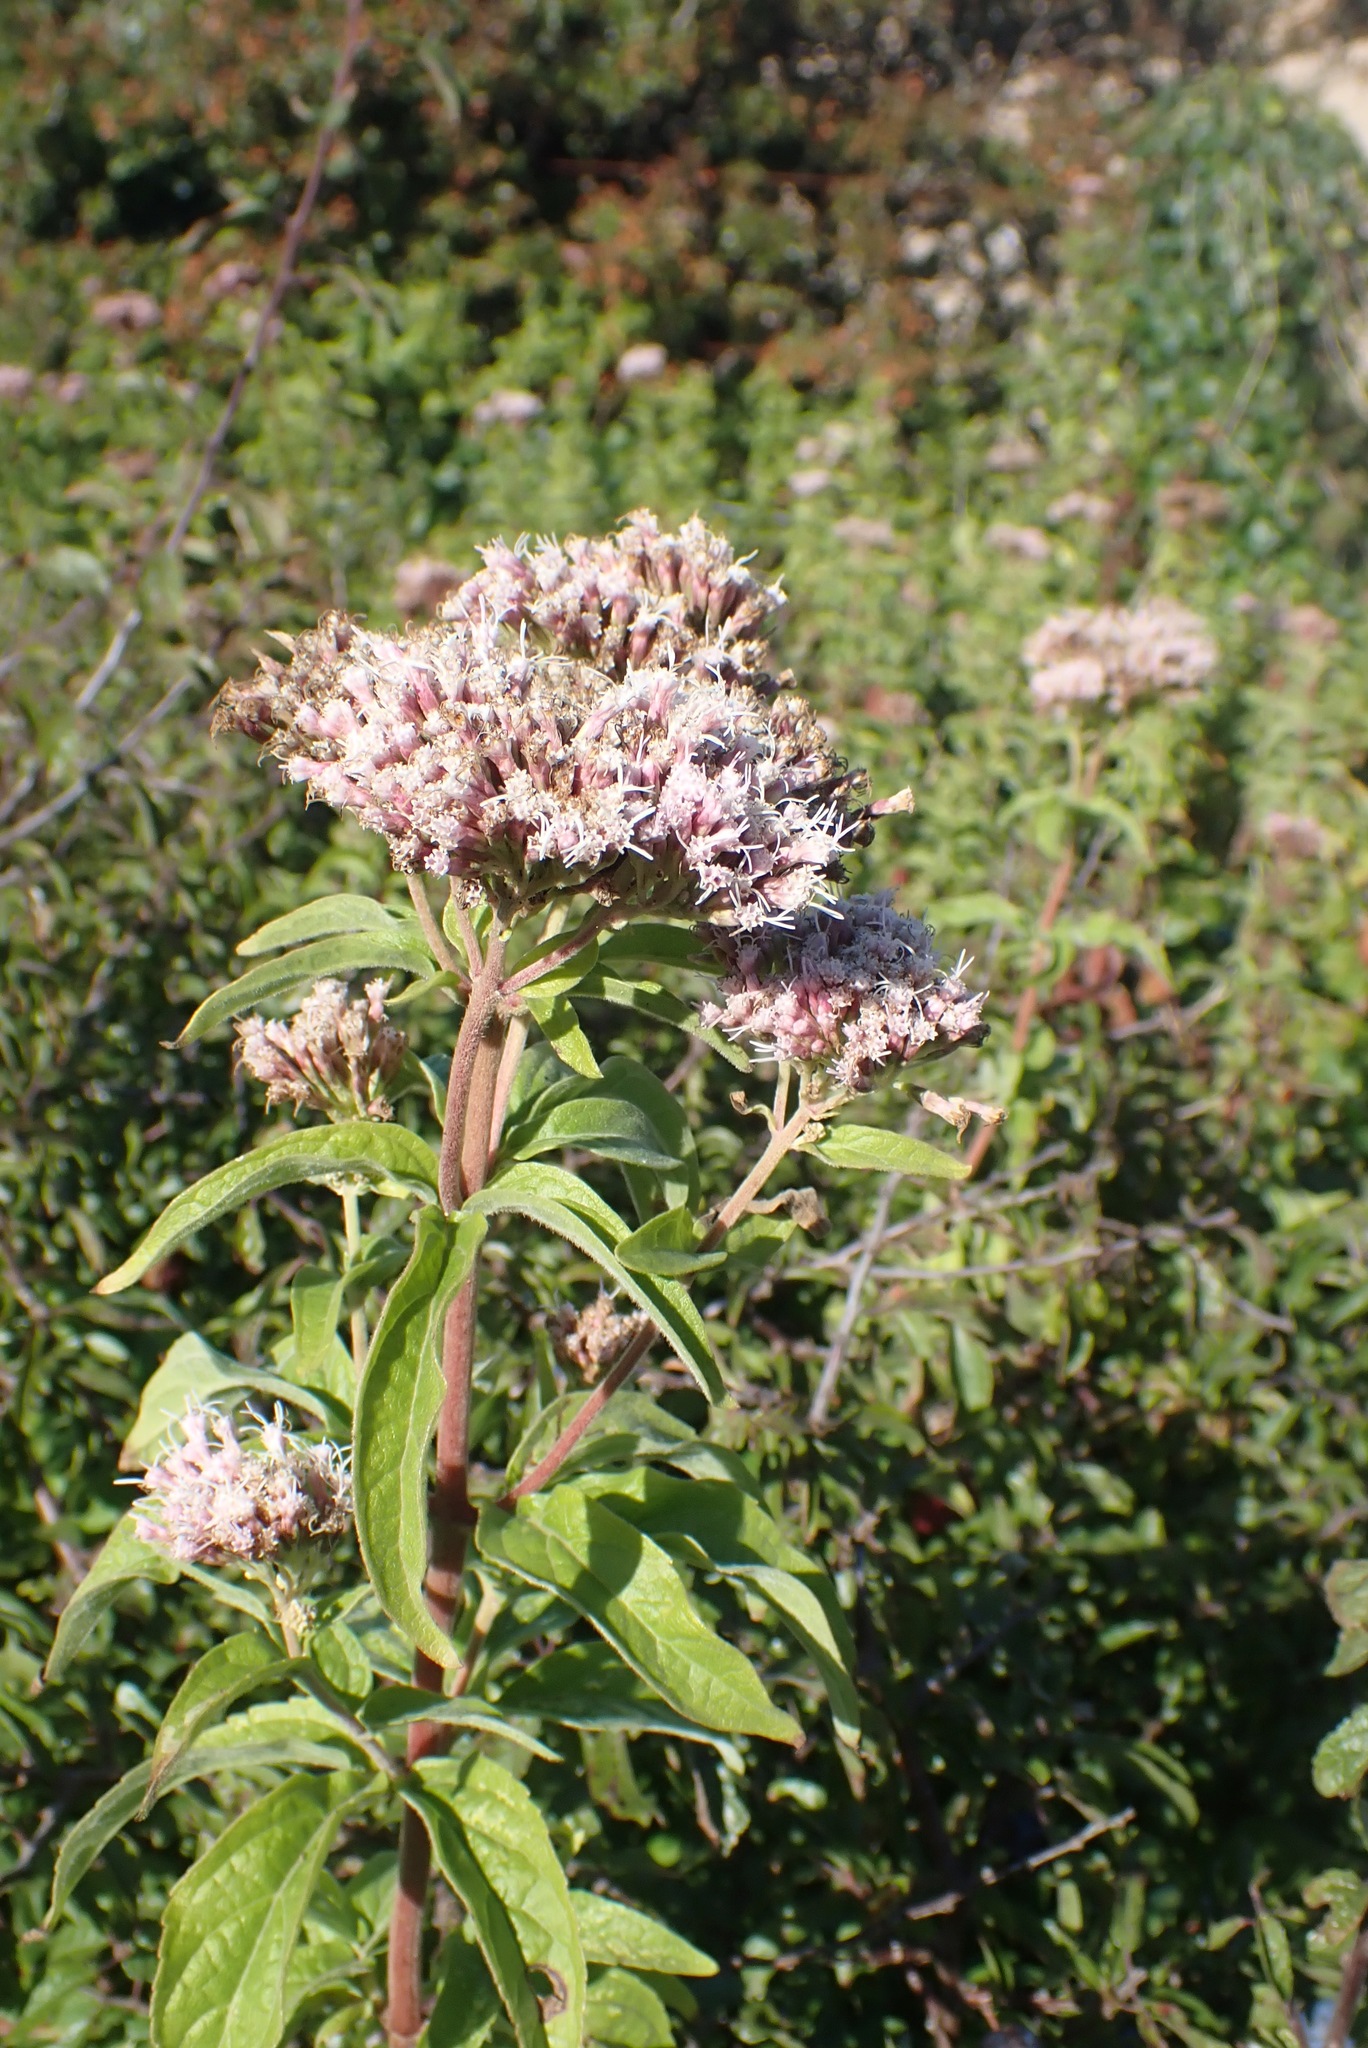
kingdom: Plantae
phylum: Tracheophyta
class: Magnoliopsida
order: Asterales
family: Asteraceae
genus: Eupatorium
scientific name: Eupatorium cannabinum
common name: Hemp-agrimony
